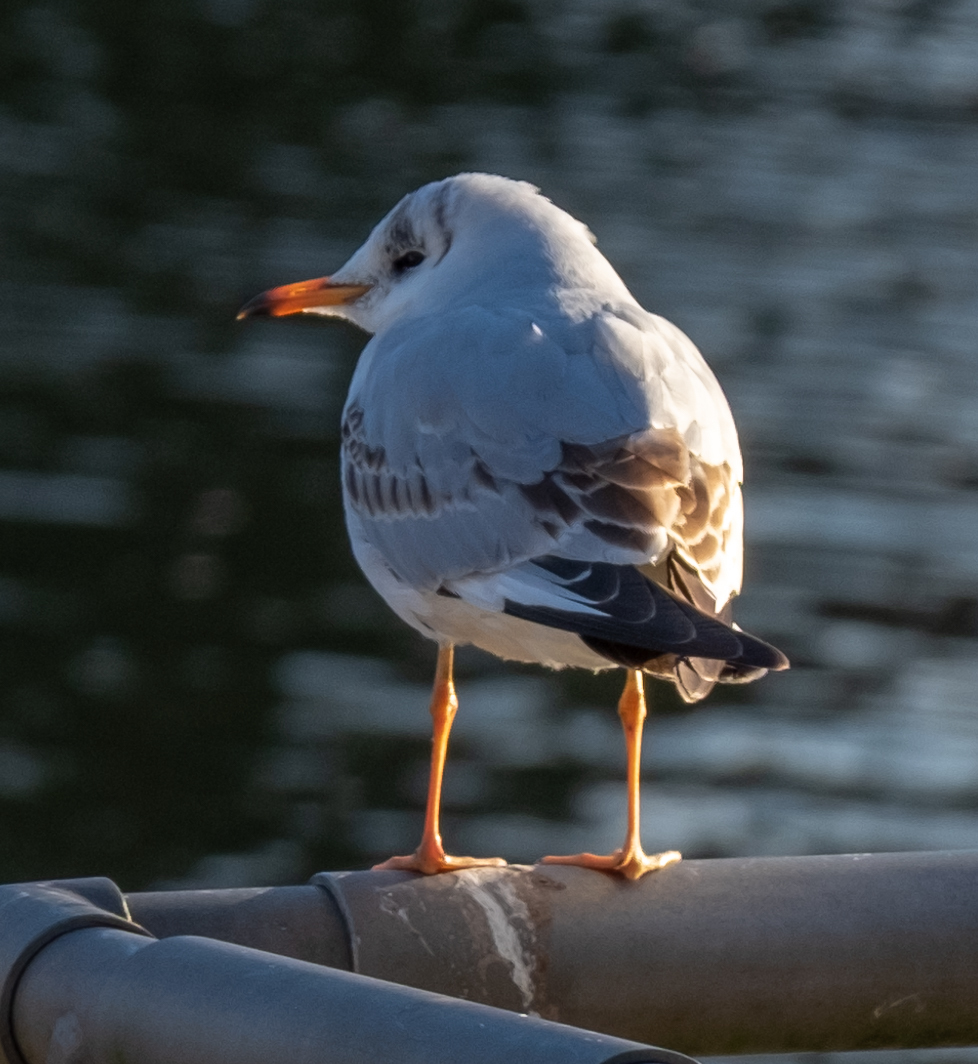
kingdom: Animalia
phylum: Chordata
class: Aves
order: Charadriiformes
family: Laridae
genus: Chroicocephalus
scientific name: Chroicocephalus ridibundus
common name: Black-headed gull
